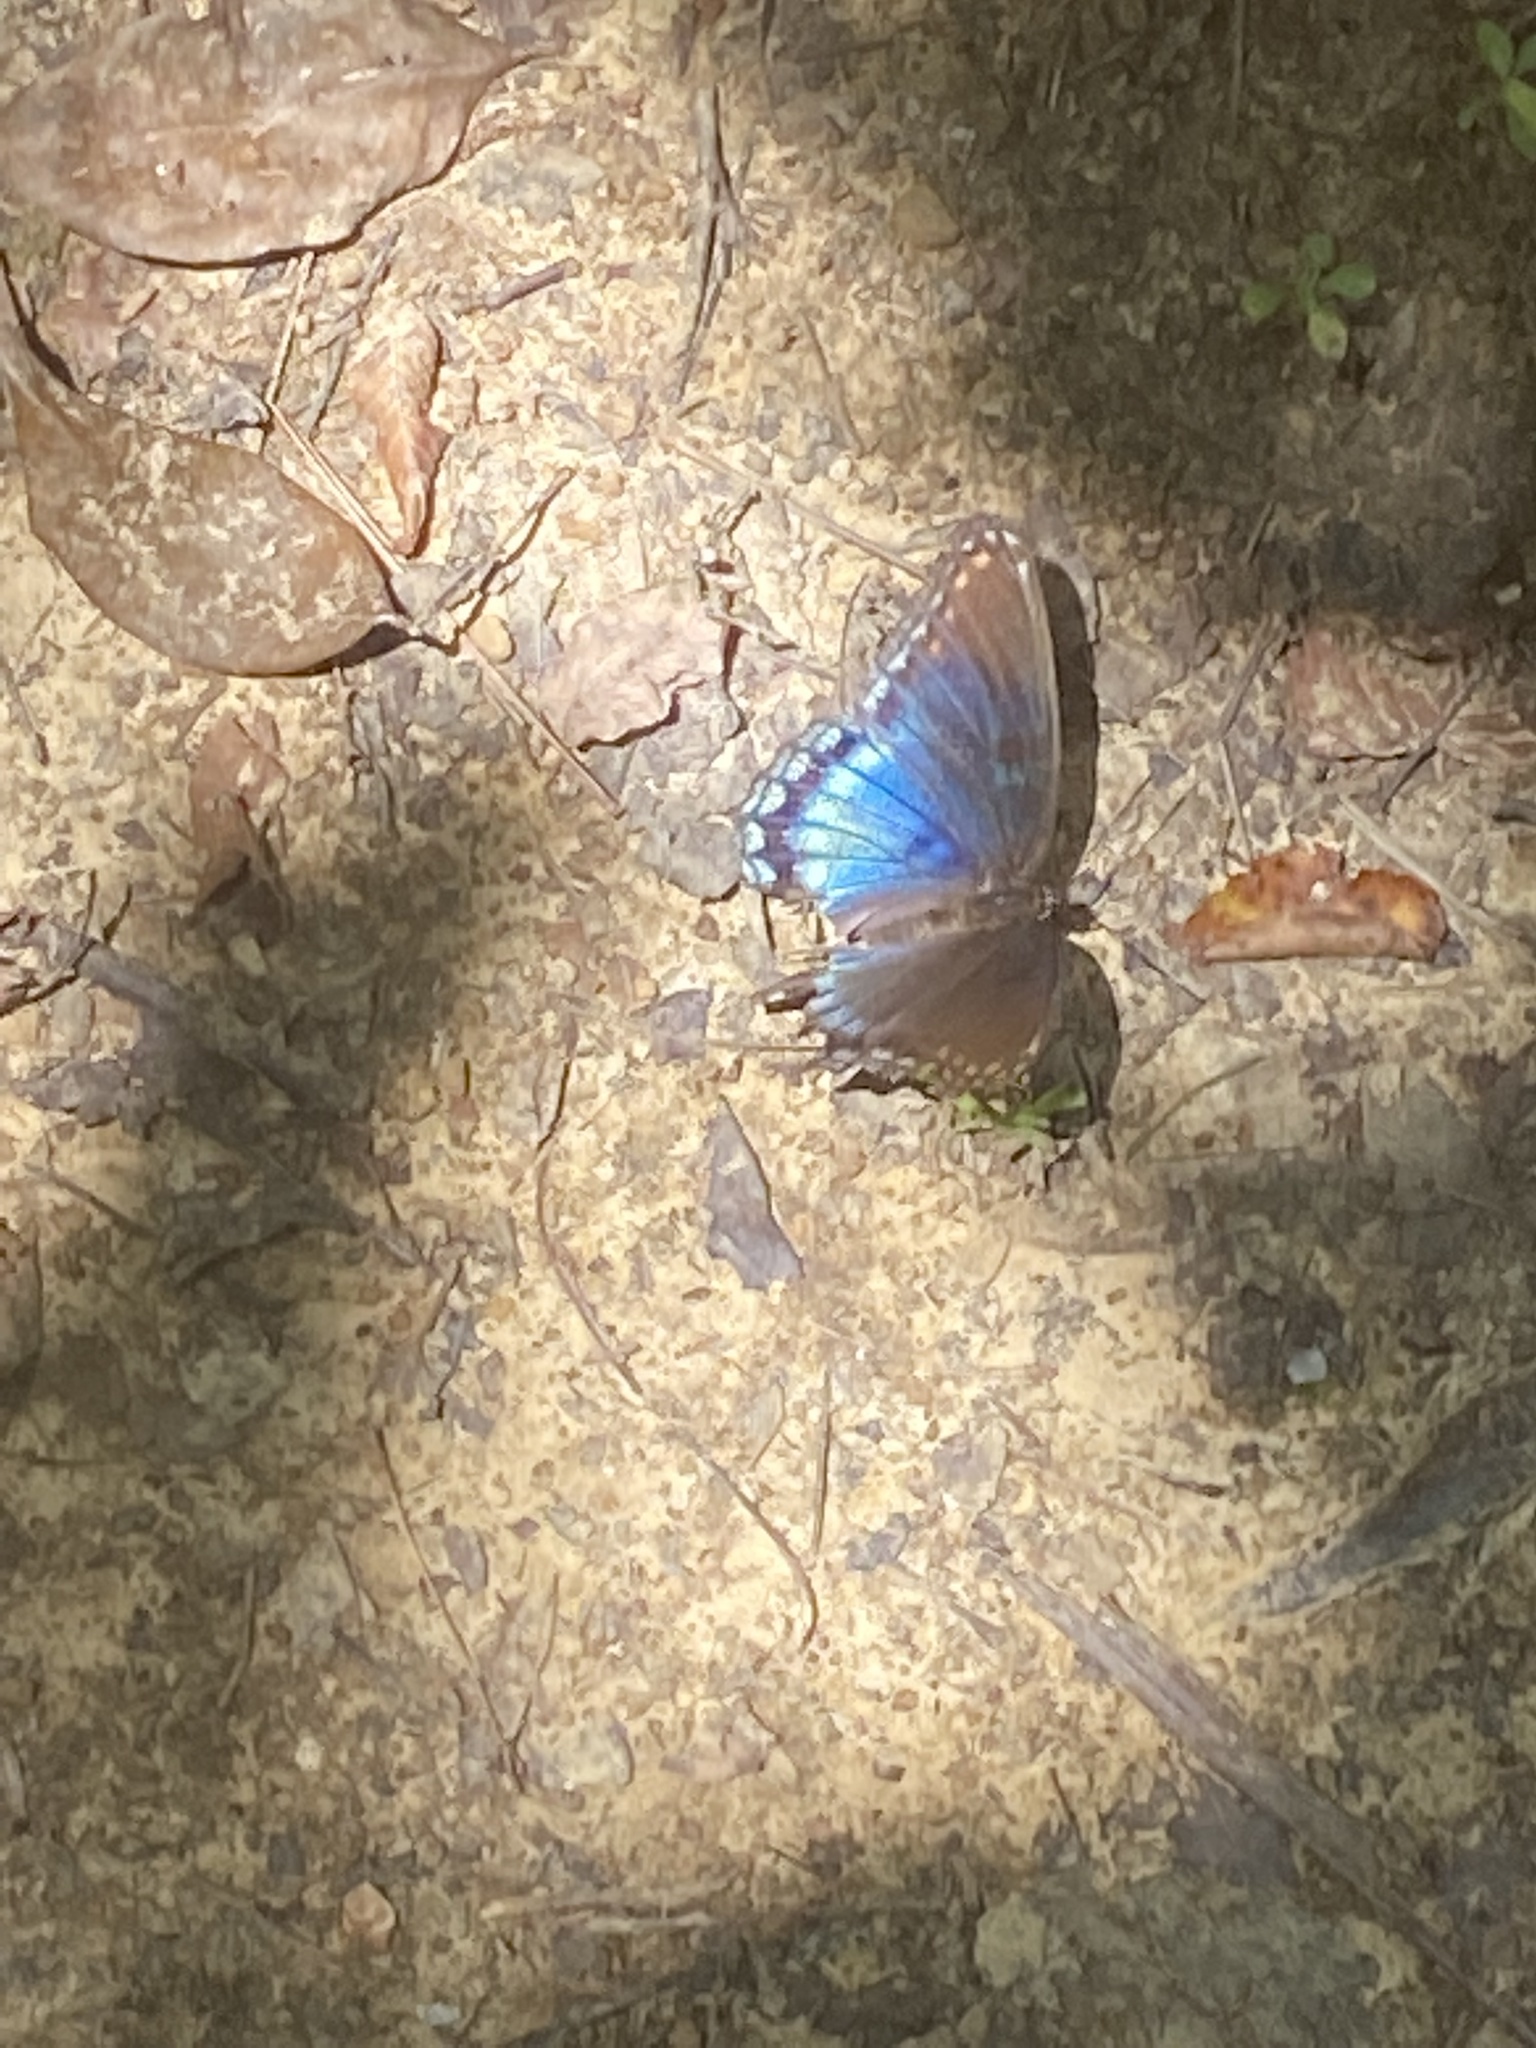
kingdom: Animalia
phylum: Arthropoda
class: Insecta
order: Lepidoptera
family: Nymphalidae
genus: Limenitis
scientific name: Limenitis arthemis
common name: Red-spotted admiral
